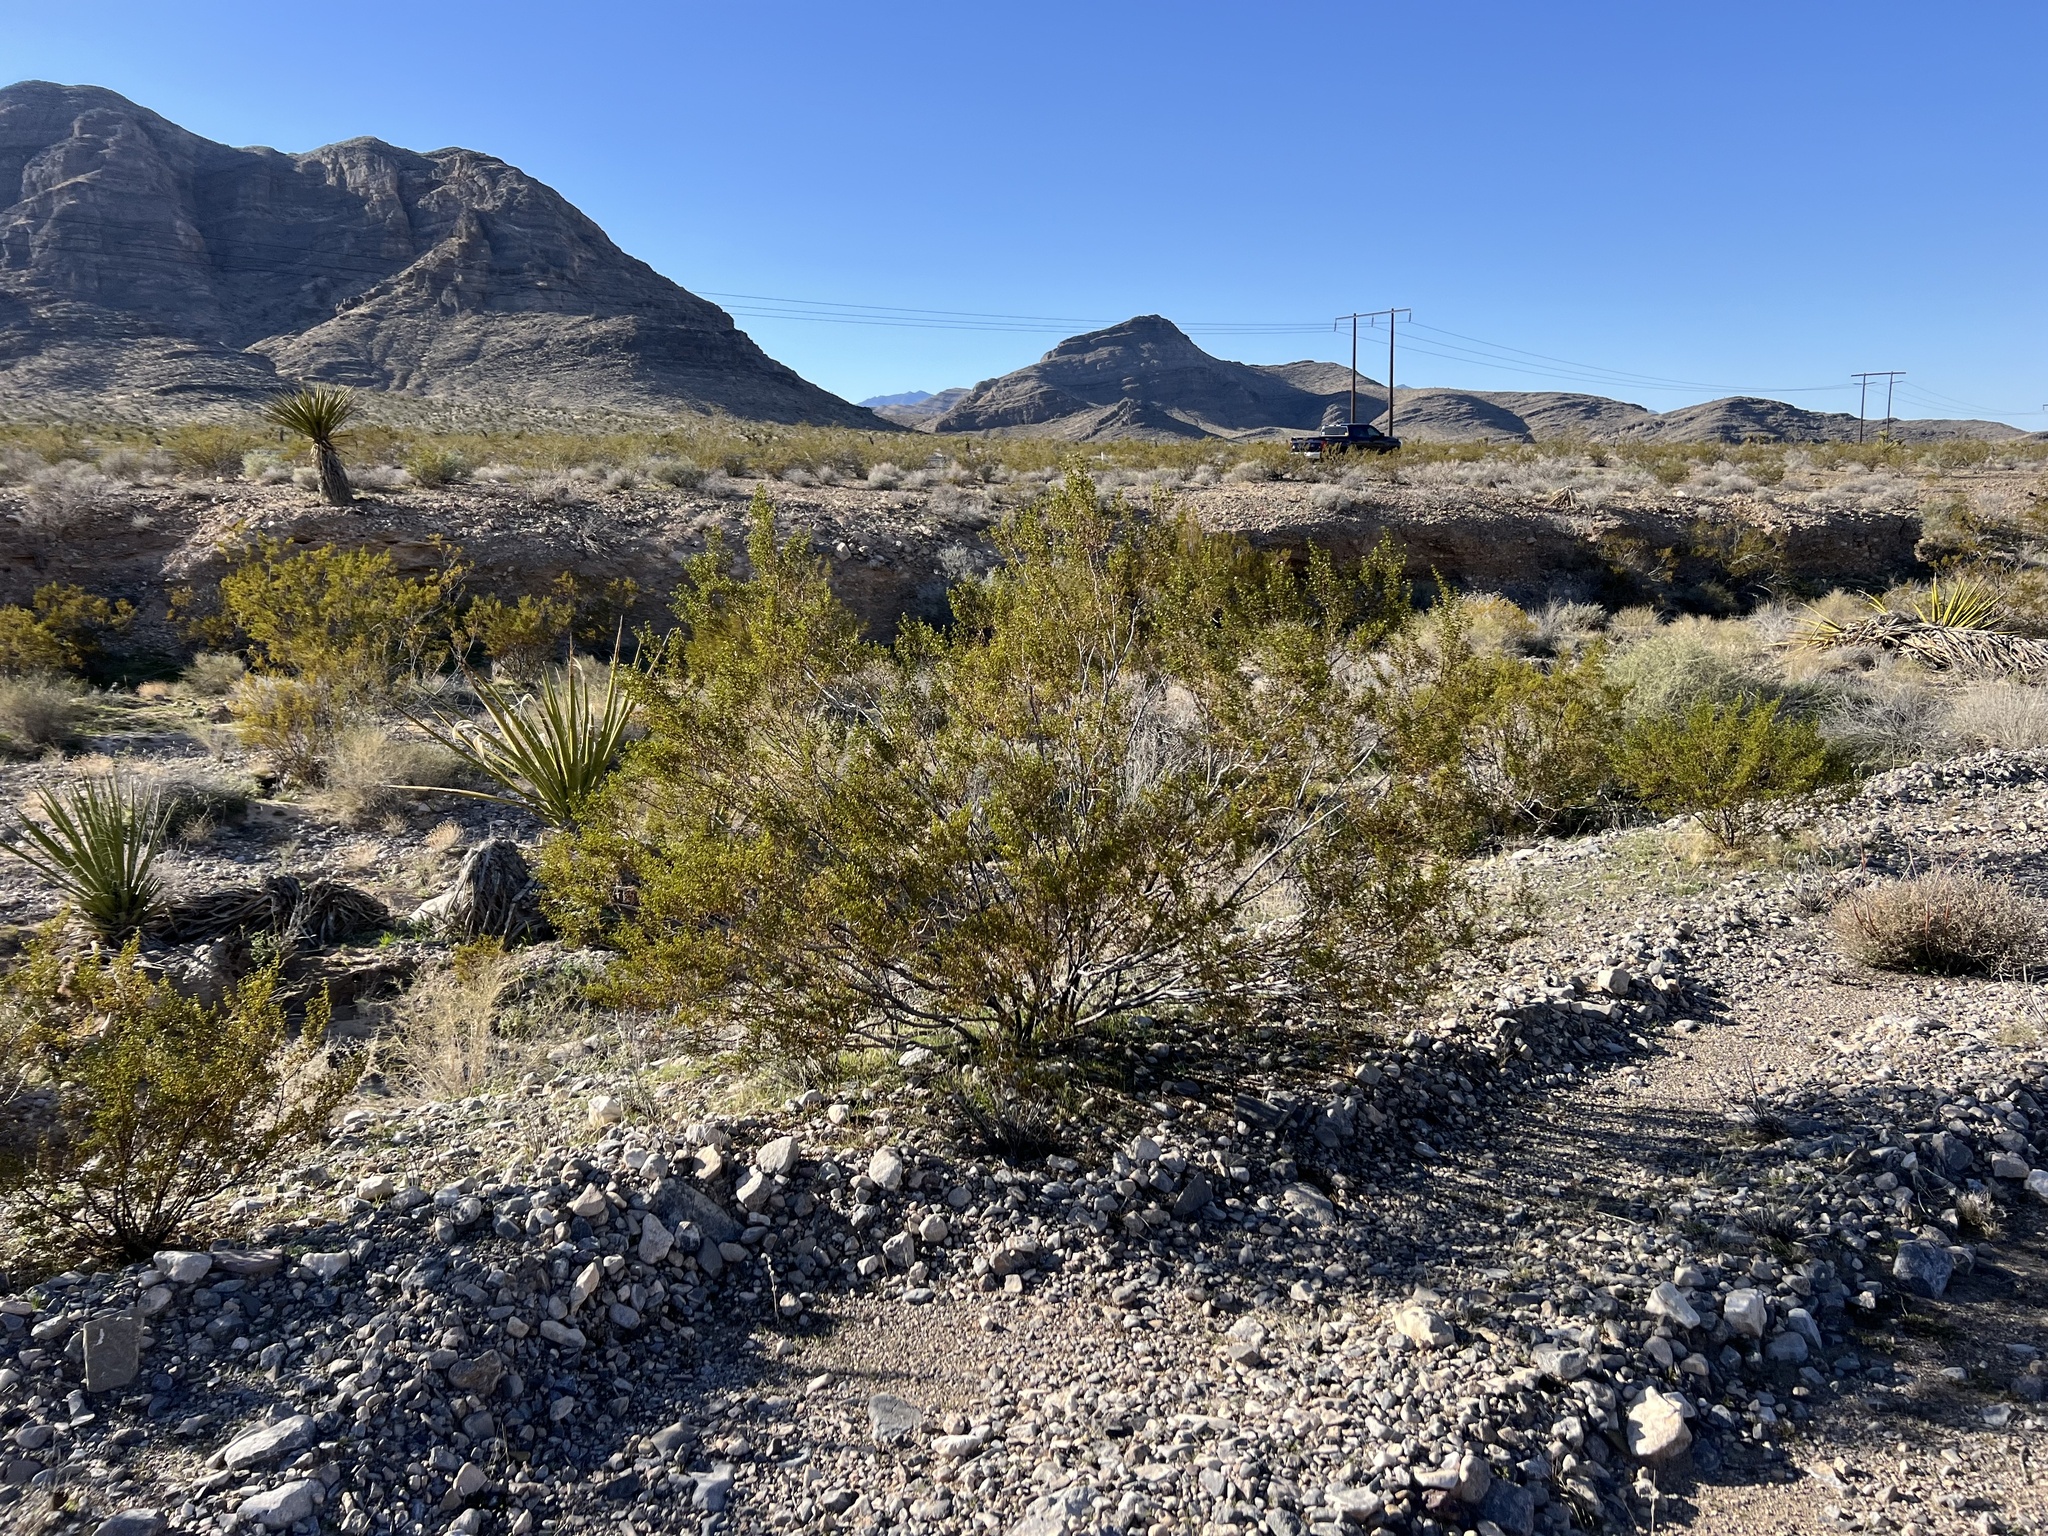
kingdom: Plantae
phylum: Tracheophyta
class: Magnoliopsida
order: Zygophyllales
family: Zygophyllaceae
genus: Larrea
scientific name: Larrea tridentata
